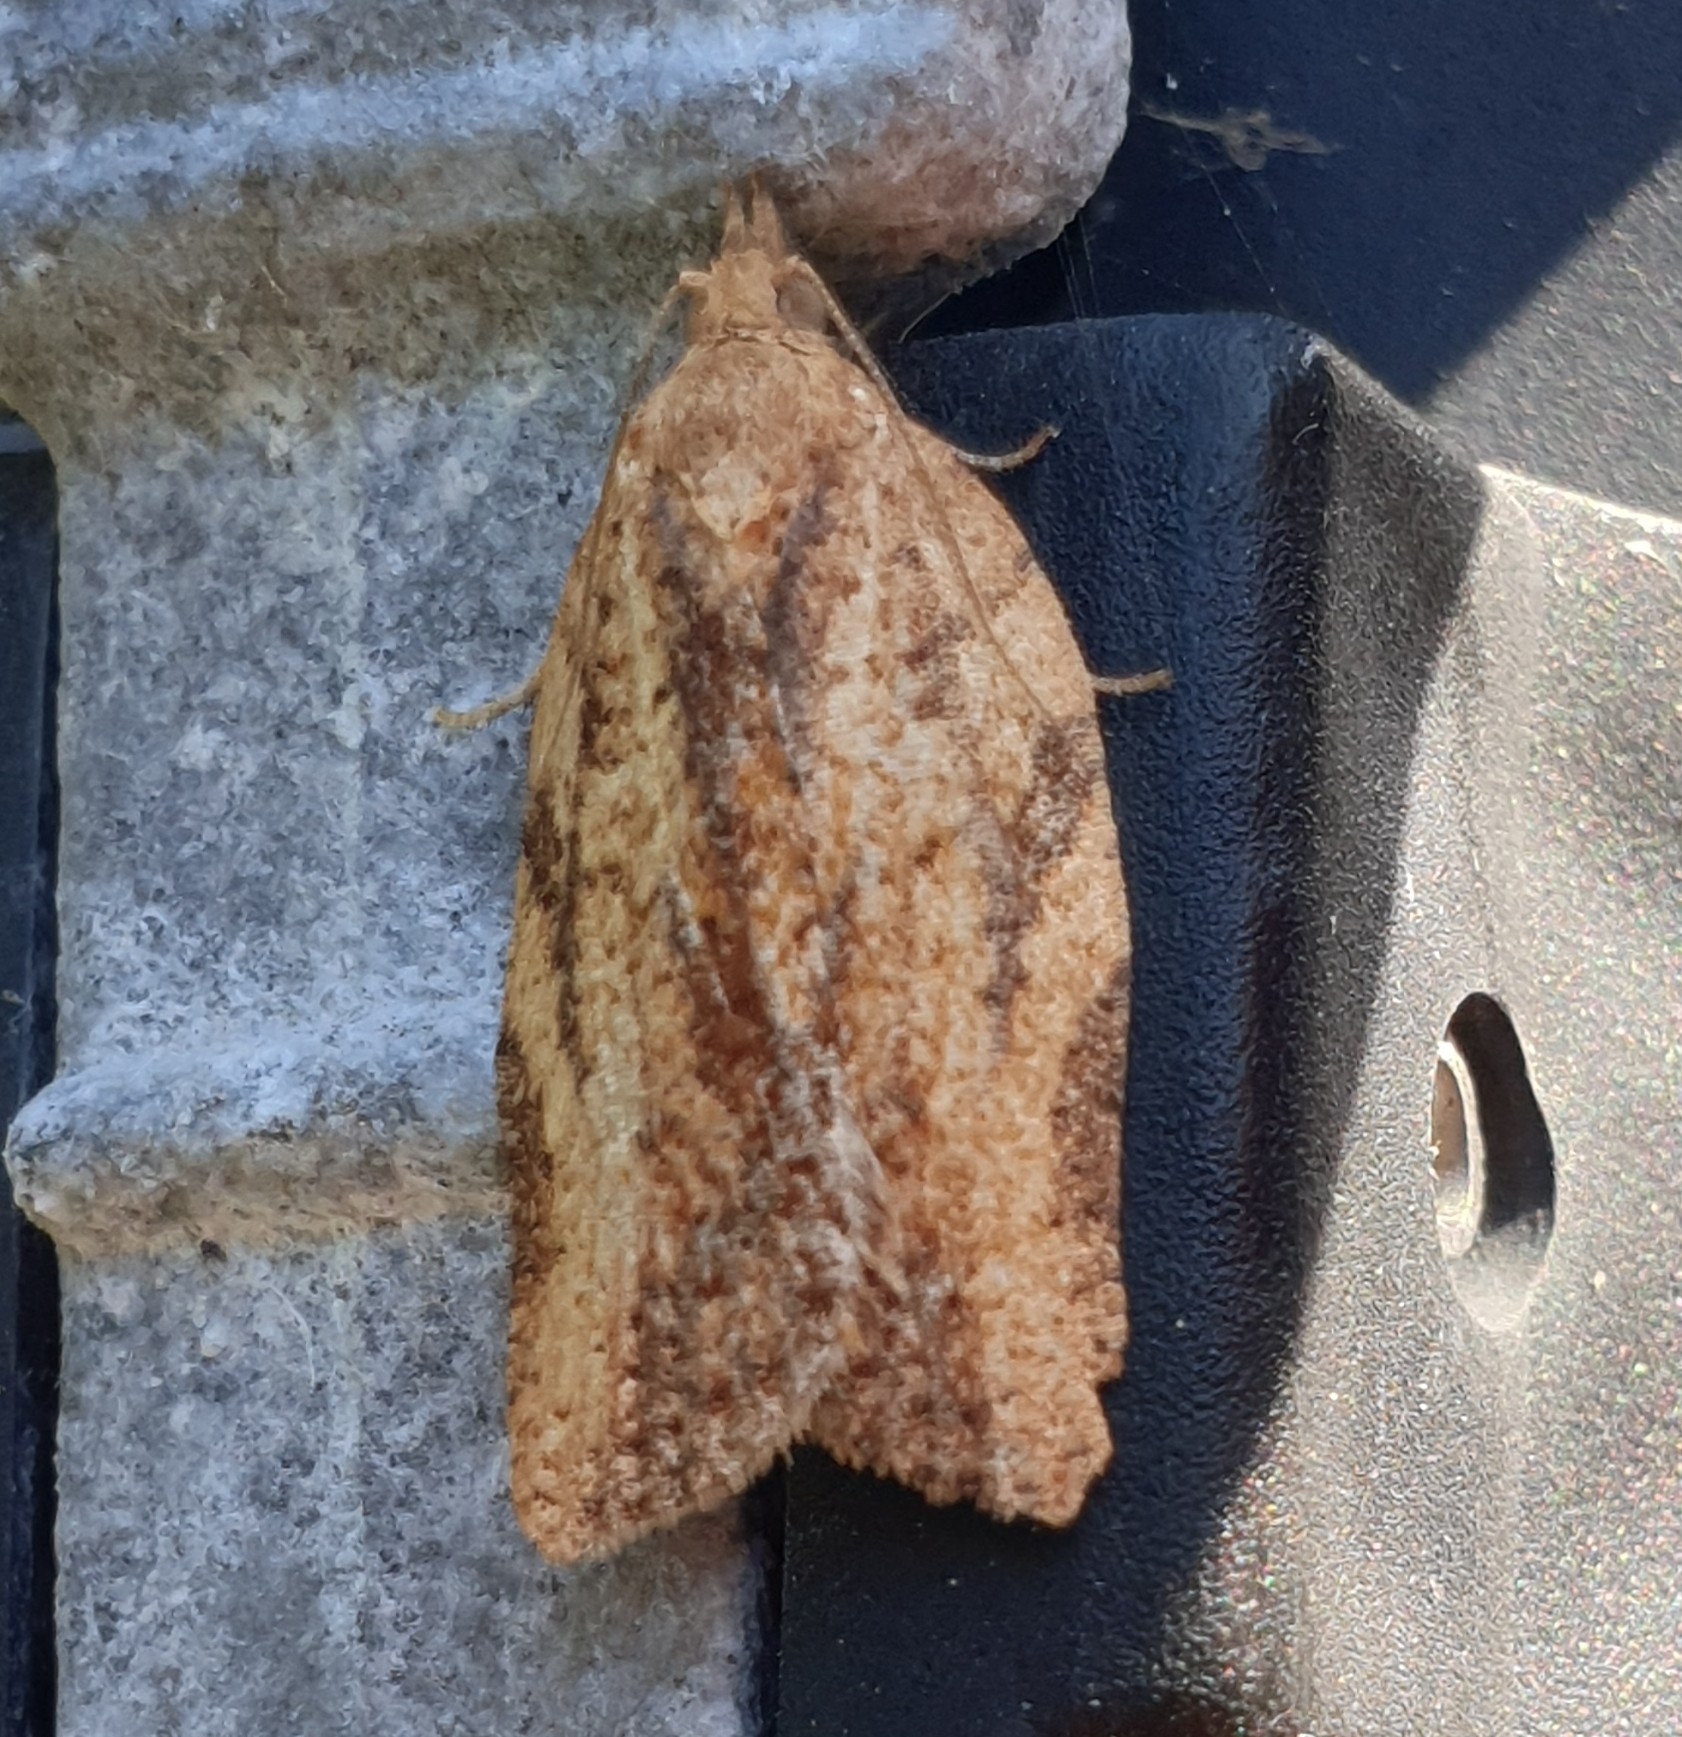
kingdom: Animalia
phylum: Arthropoda
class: Insecta
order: Lepidoptera
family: Tortricidae
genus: Epiphyas
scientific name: Epiphyas postvittana
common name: Light brown apple moth
